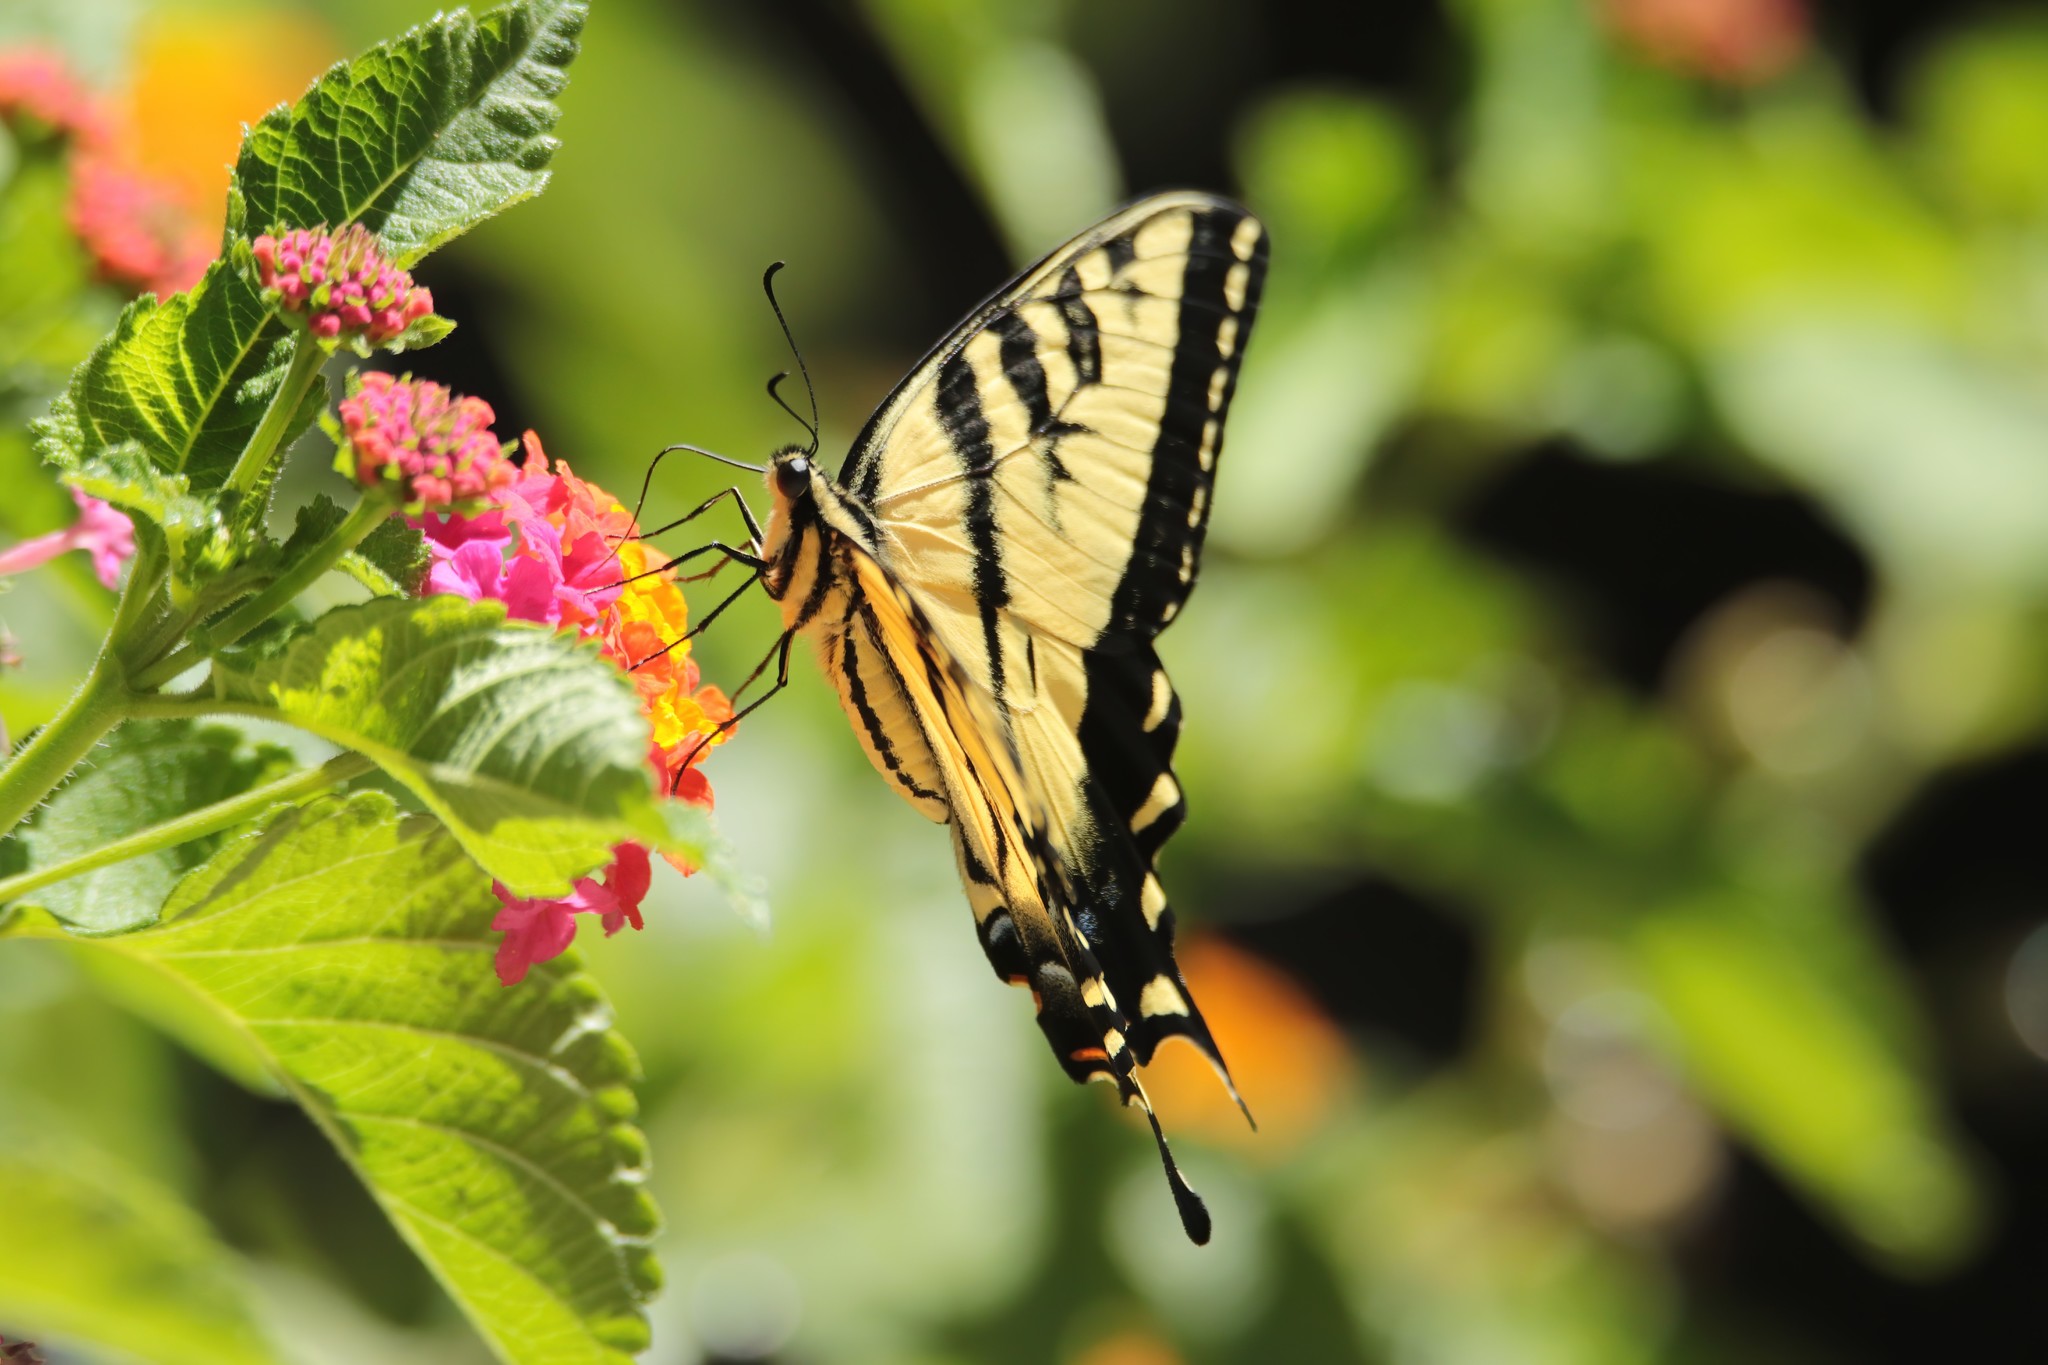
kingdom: Animalia
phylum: Arthropoda
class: Insecta
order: Lepidoptera
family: Papilionidae
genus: Papilio
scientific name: Papilio rutulus
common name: Western tiger swallowtail
